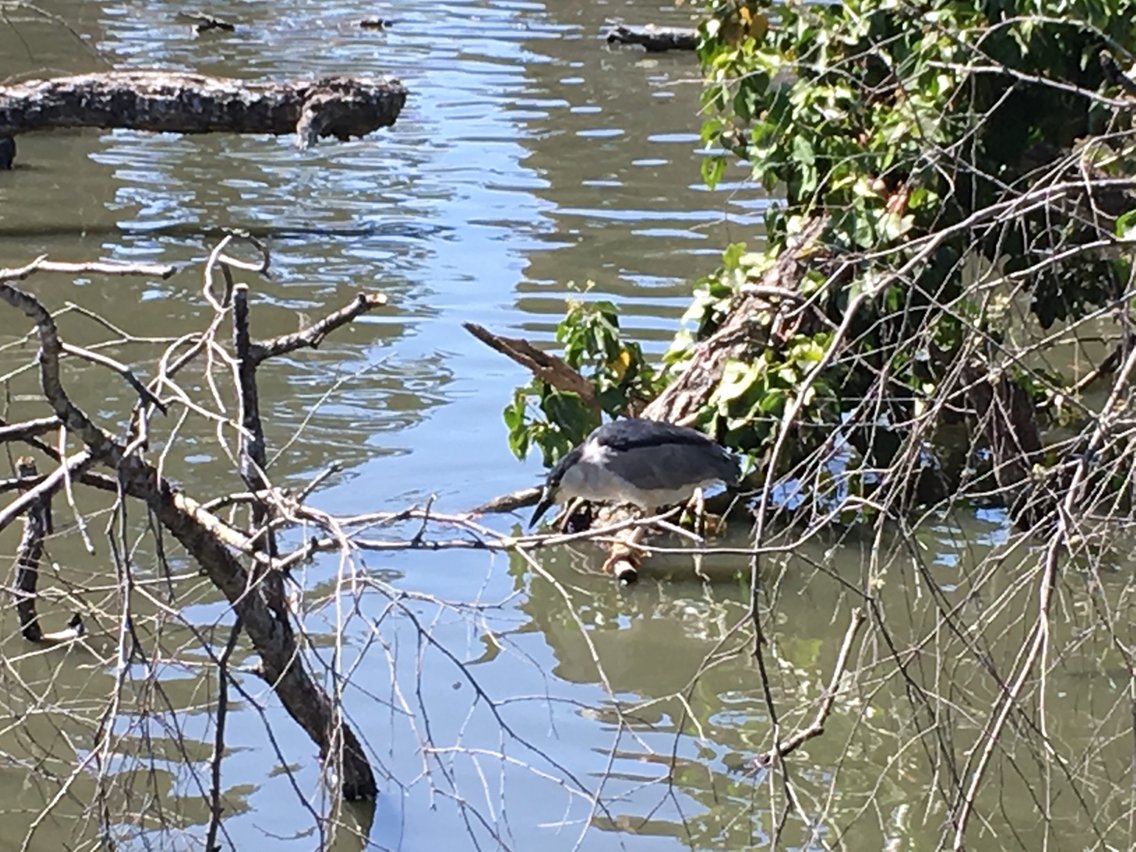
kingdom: Animalia
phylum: Chordata
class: Aves
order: Pelecaniformes
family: Ardeidae
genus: Nycticorax
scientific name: Nycticorax nycticorax
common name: Black-crowned night heron
